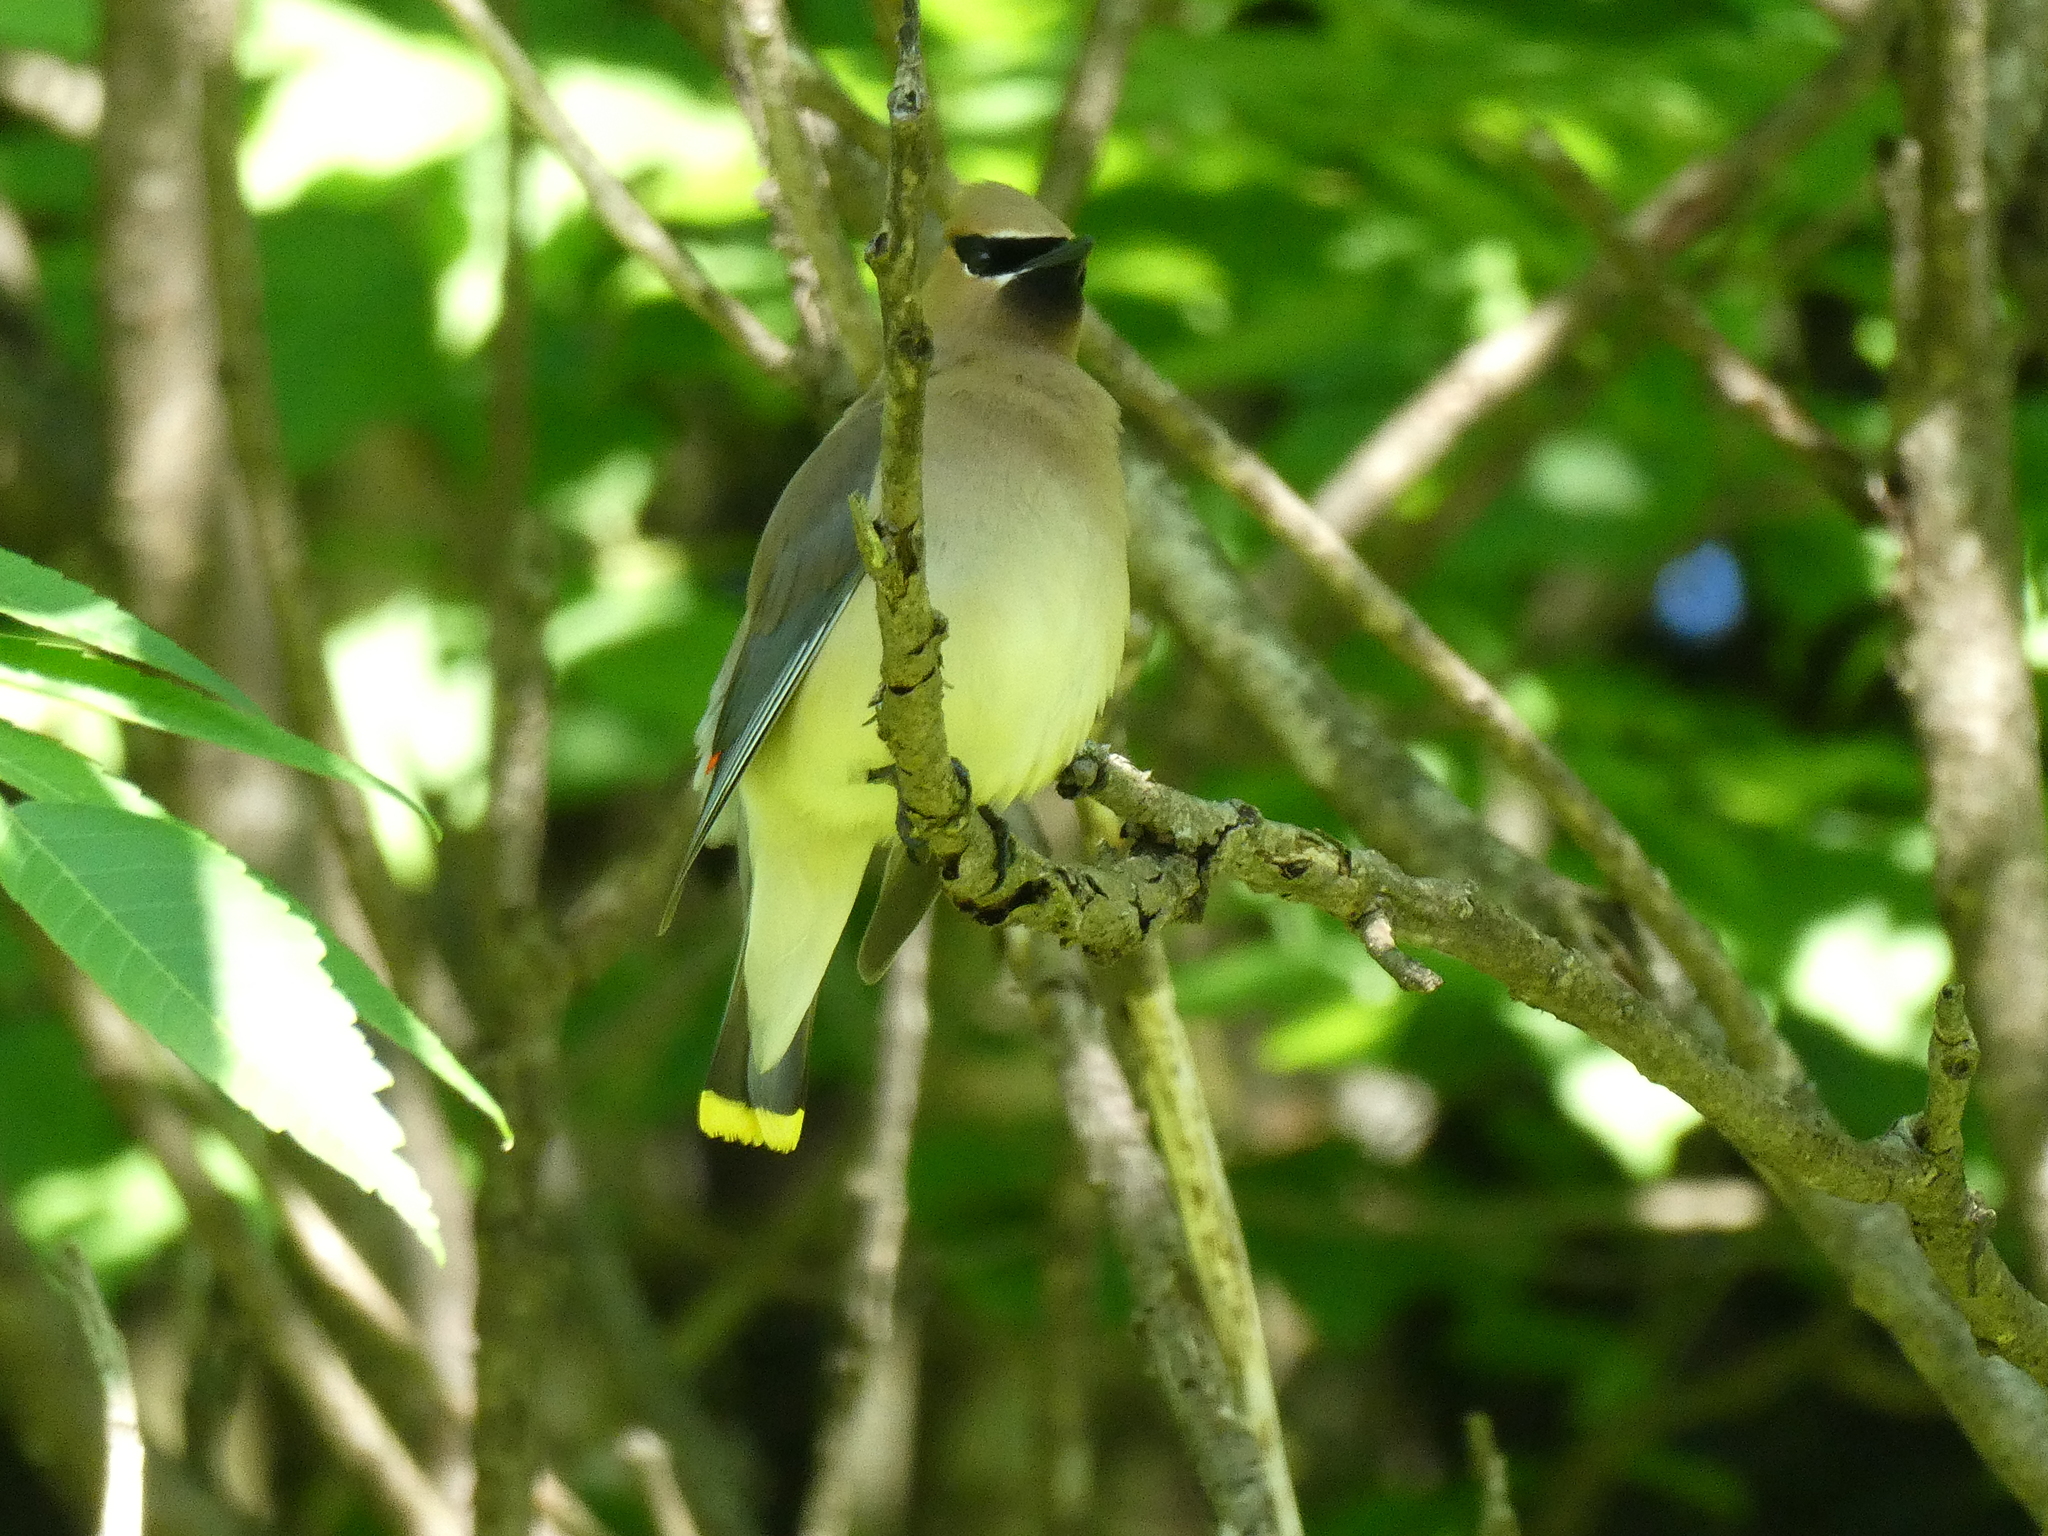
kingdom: Animalia
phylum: Chordata
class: Aves
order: Passeriformes
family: Bombycillidae
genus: Bombycilla
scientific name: Bombycilla cedrorum
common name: Cedar waxwing
